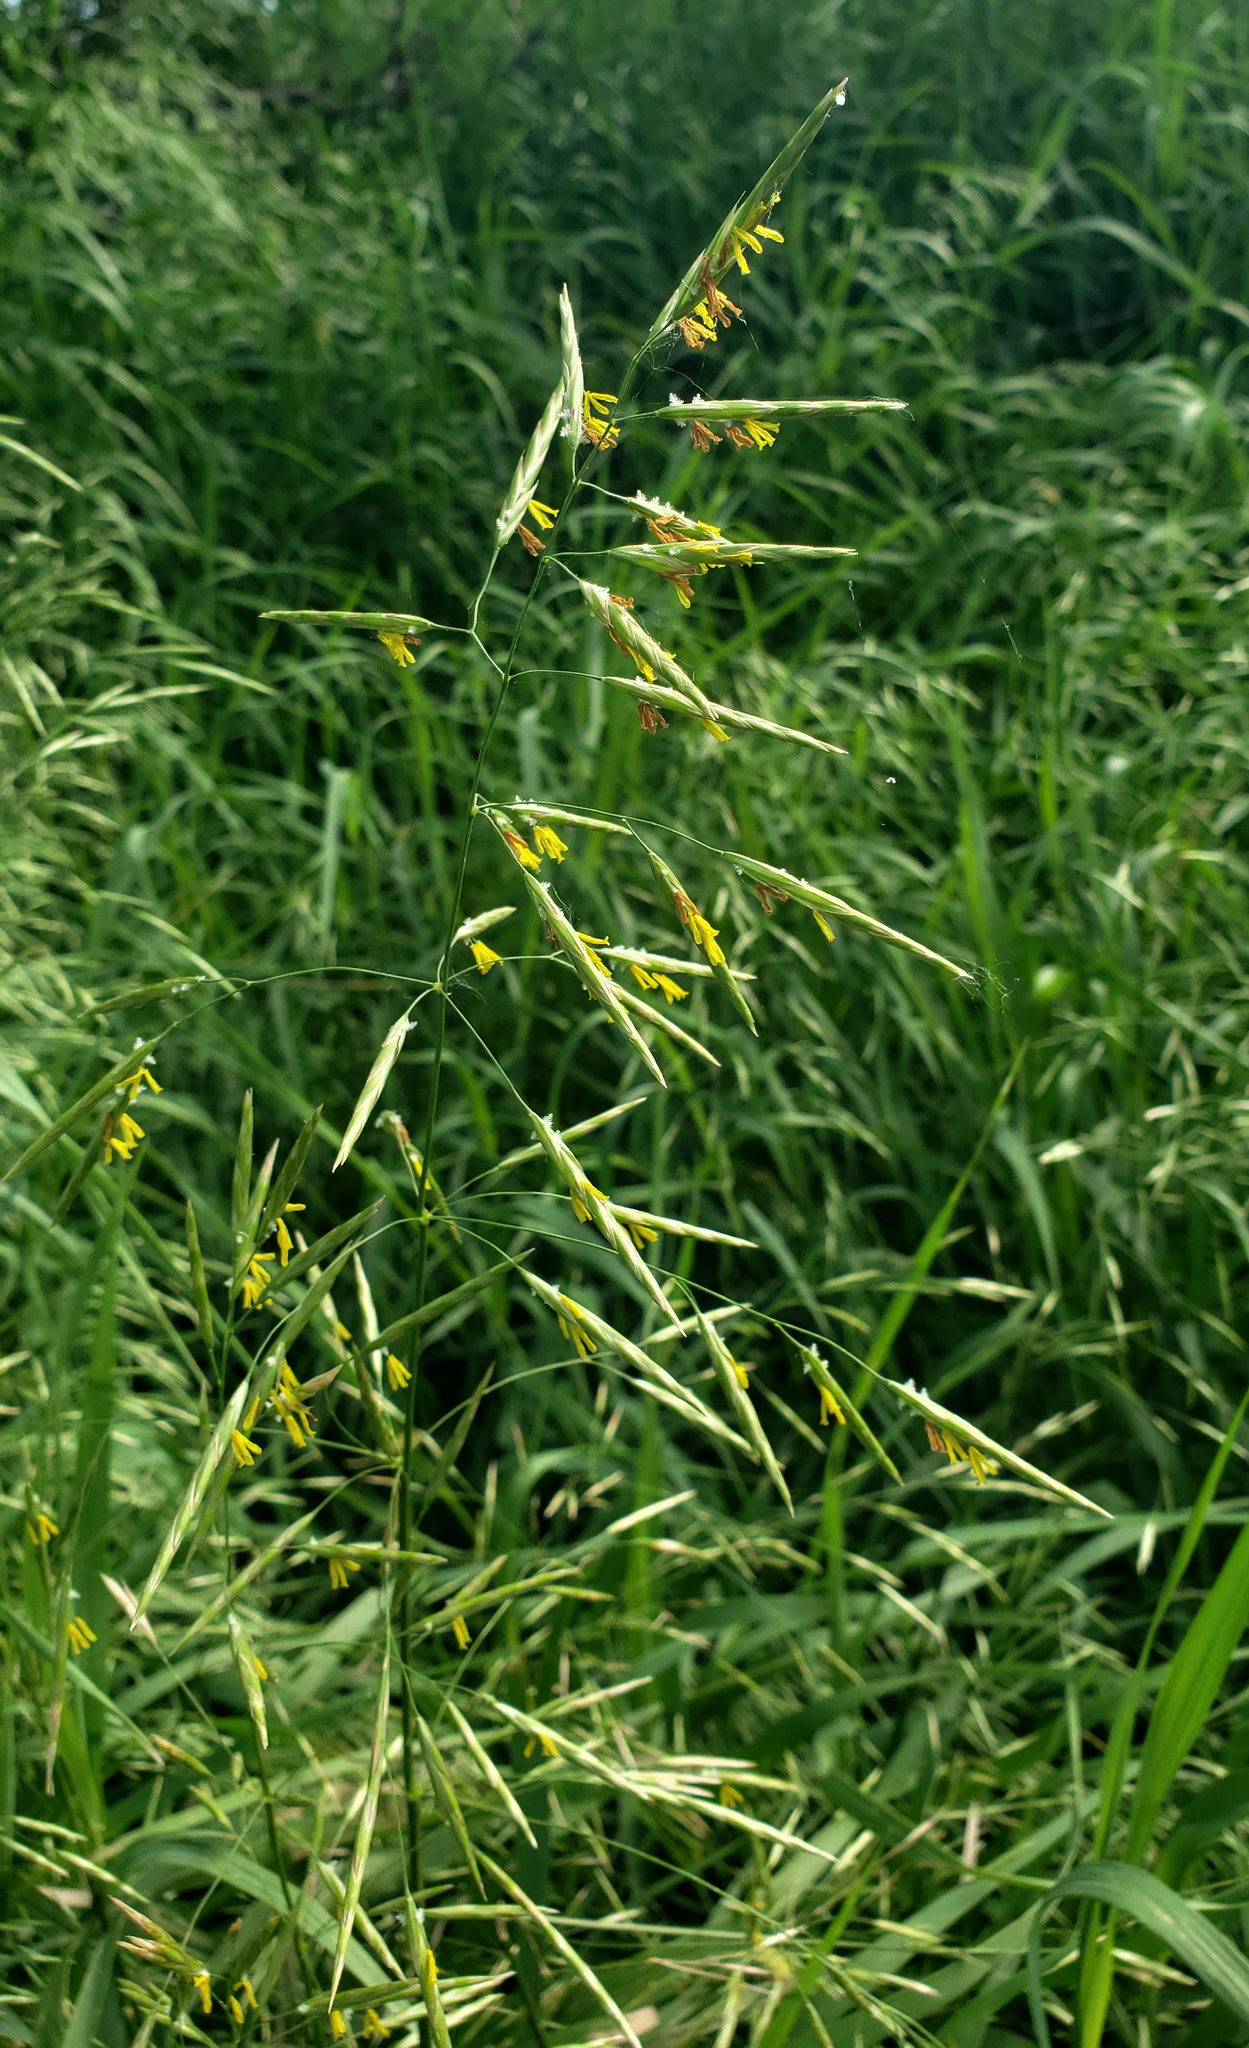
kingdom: Plantae
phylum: Tracheophyta
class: Liliopsida
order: Poales
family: Poaceae
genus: Bromus
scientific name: Bromus inermis
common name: Smooth brome
